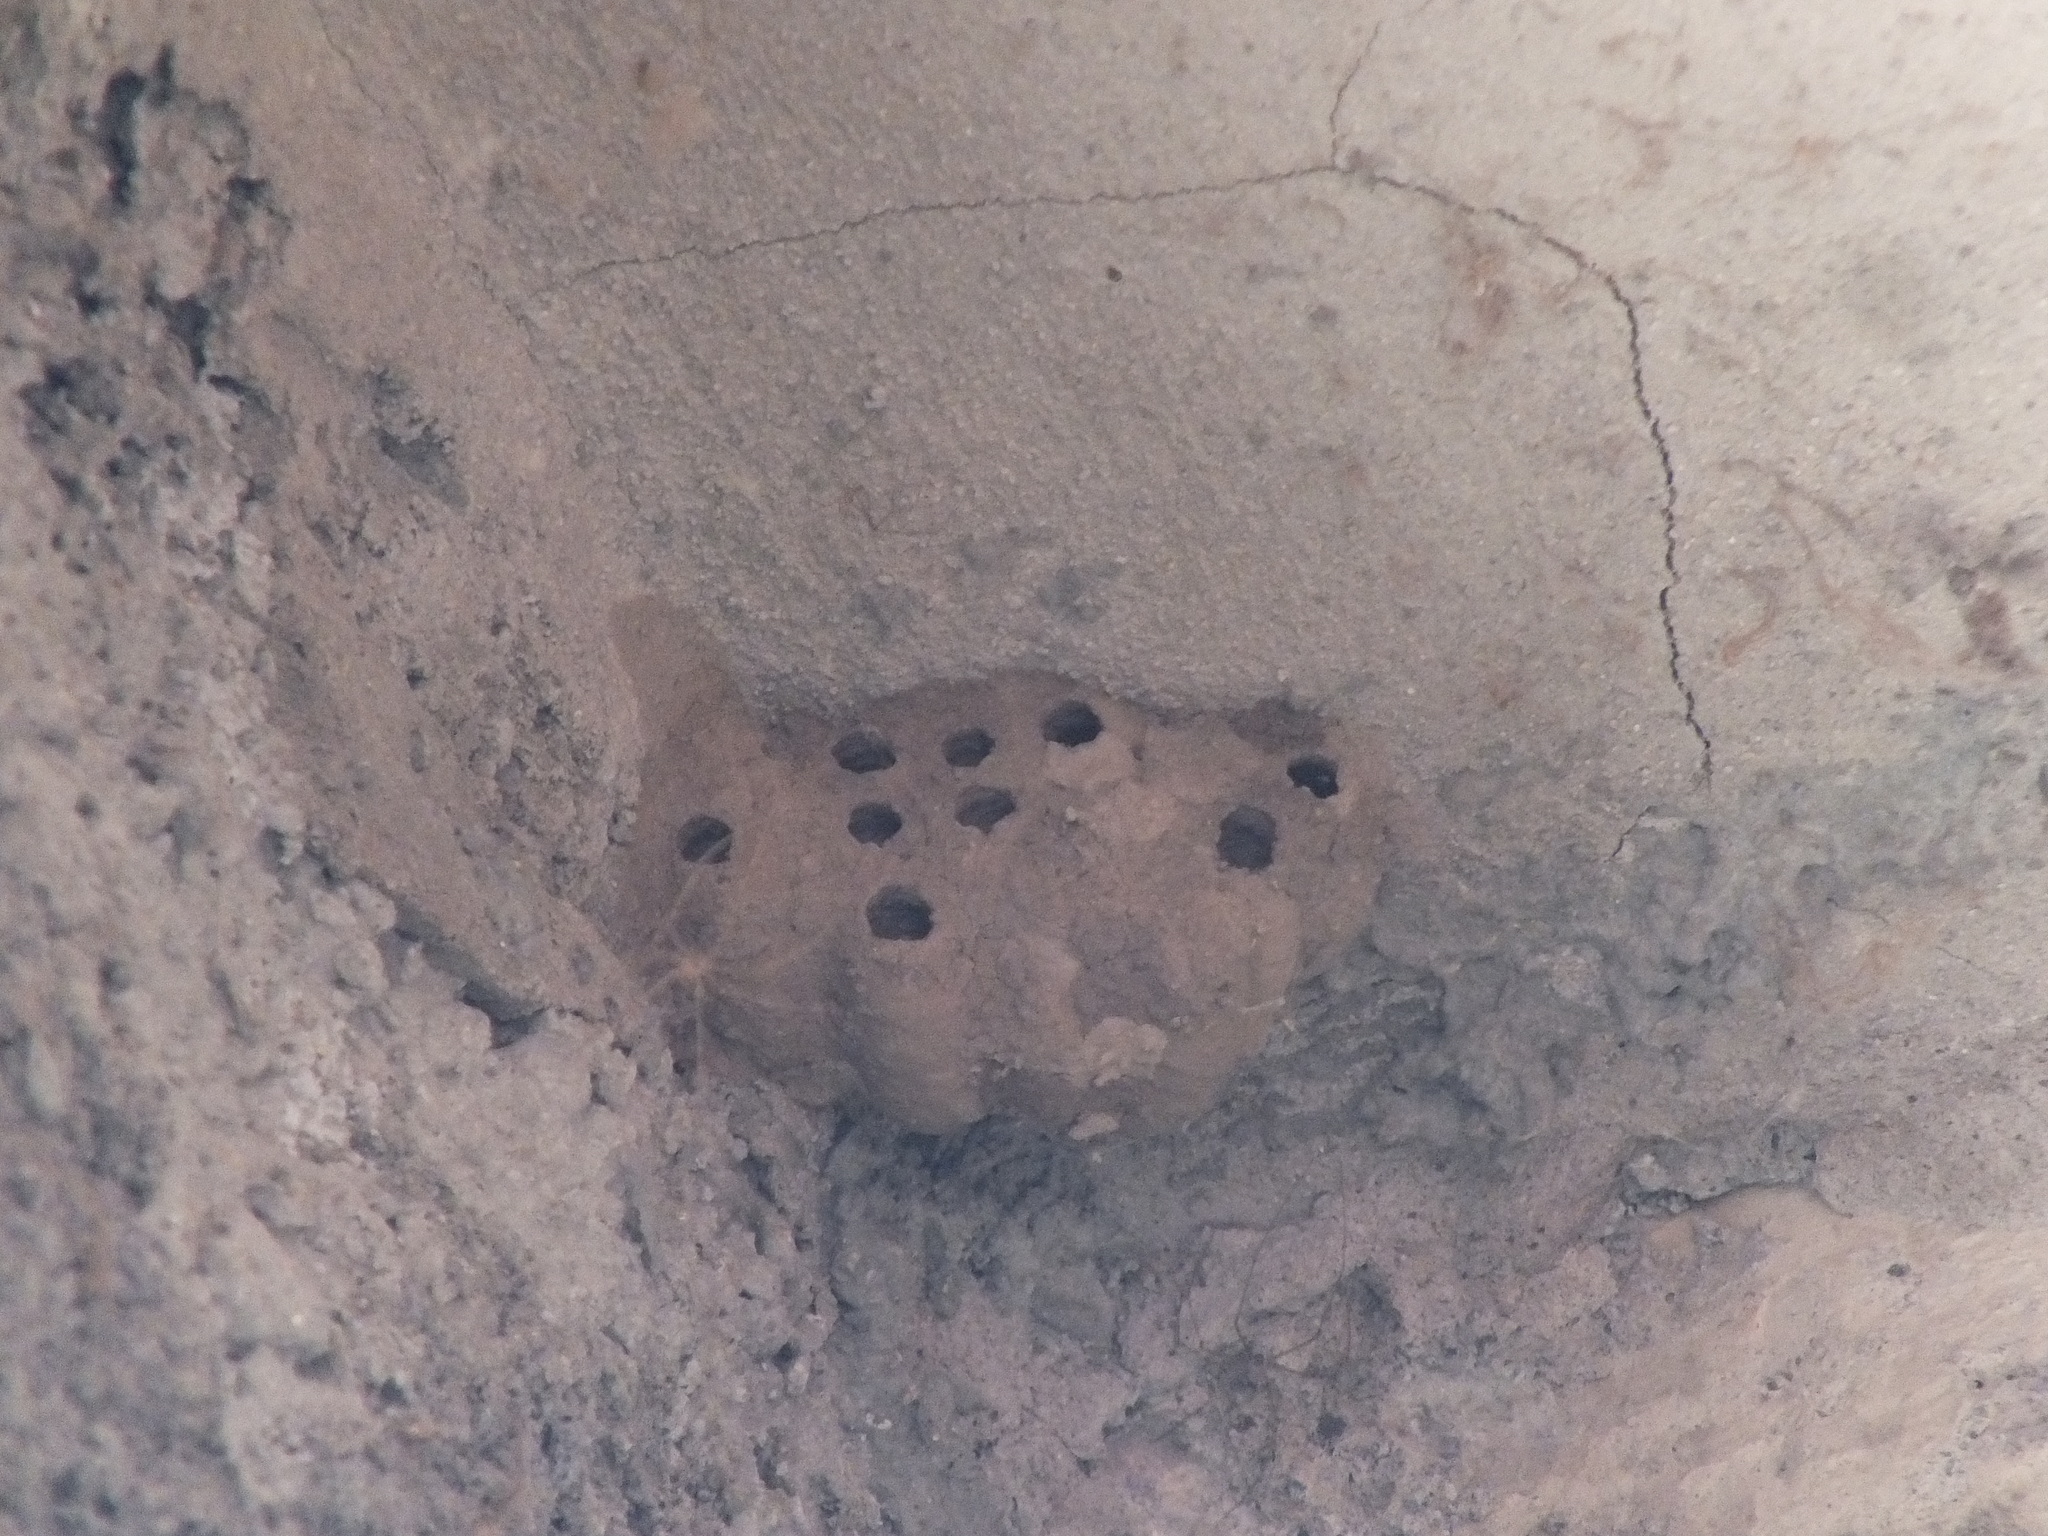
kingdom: Animalia
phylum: Arthropoda
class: Insecta
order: Hymenoptera
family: Sphecidae
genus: Sceliphron
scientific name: Sceliphron
